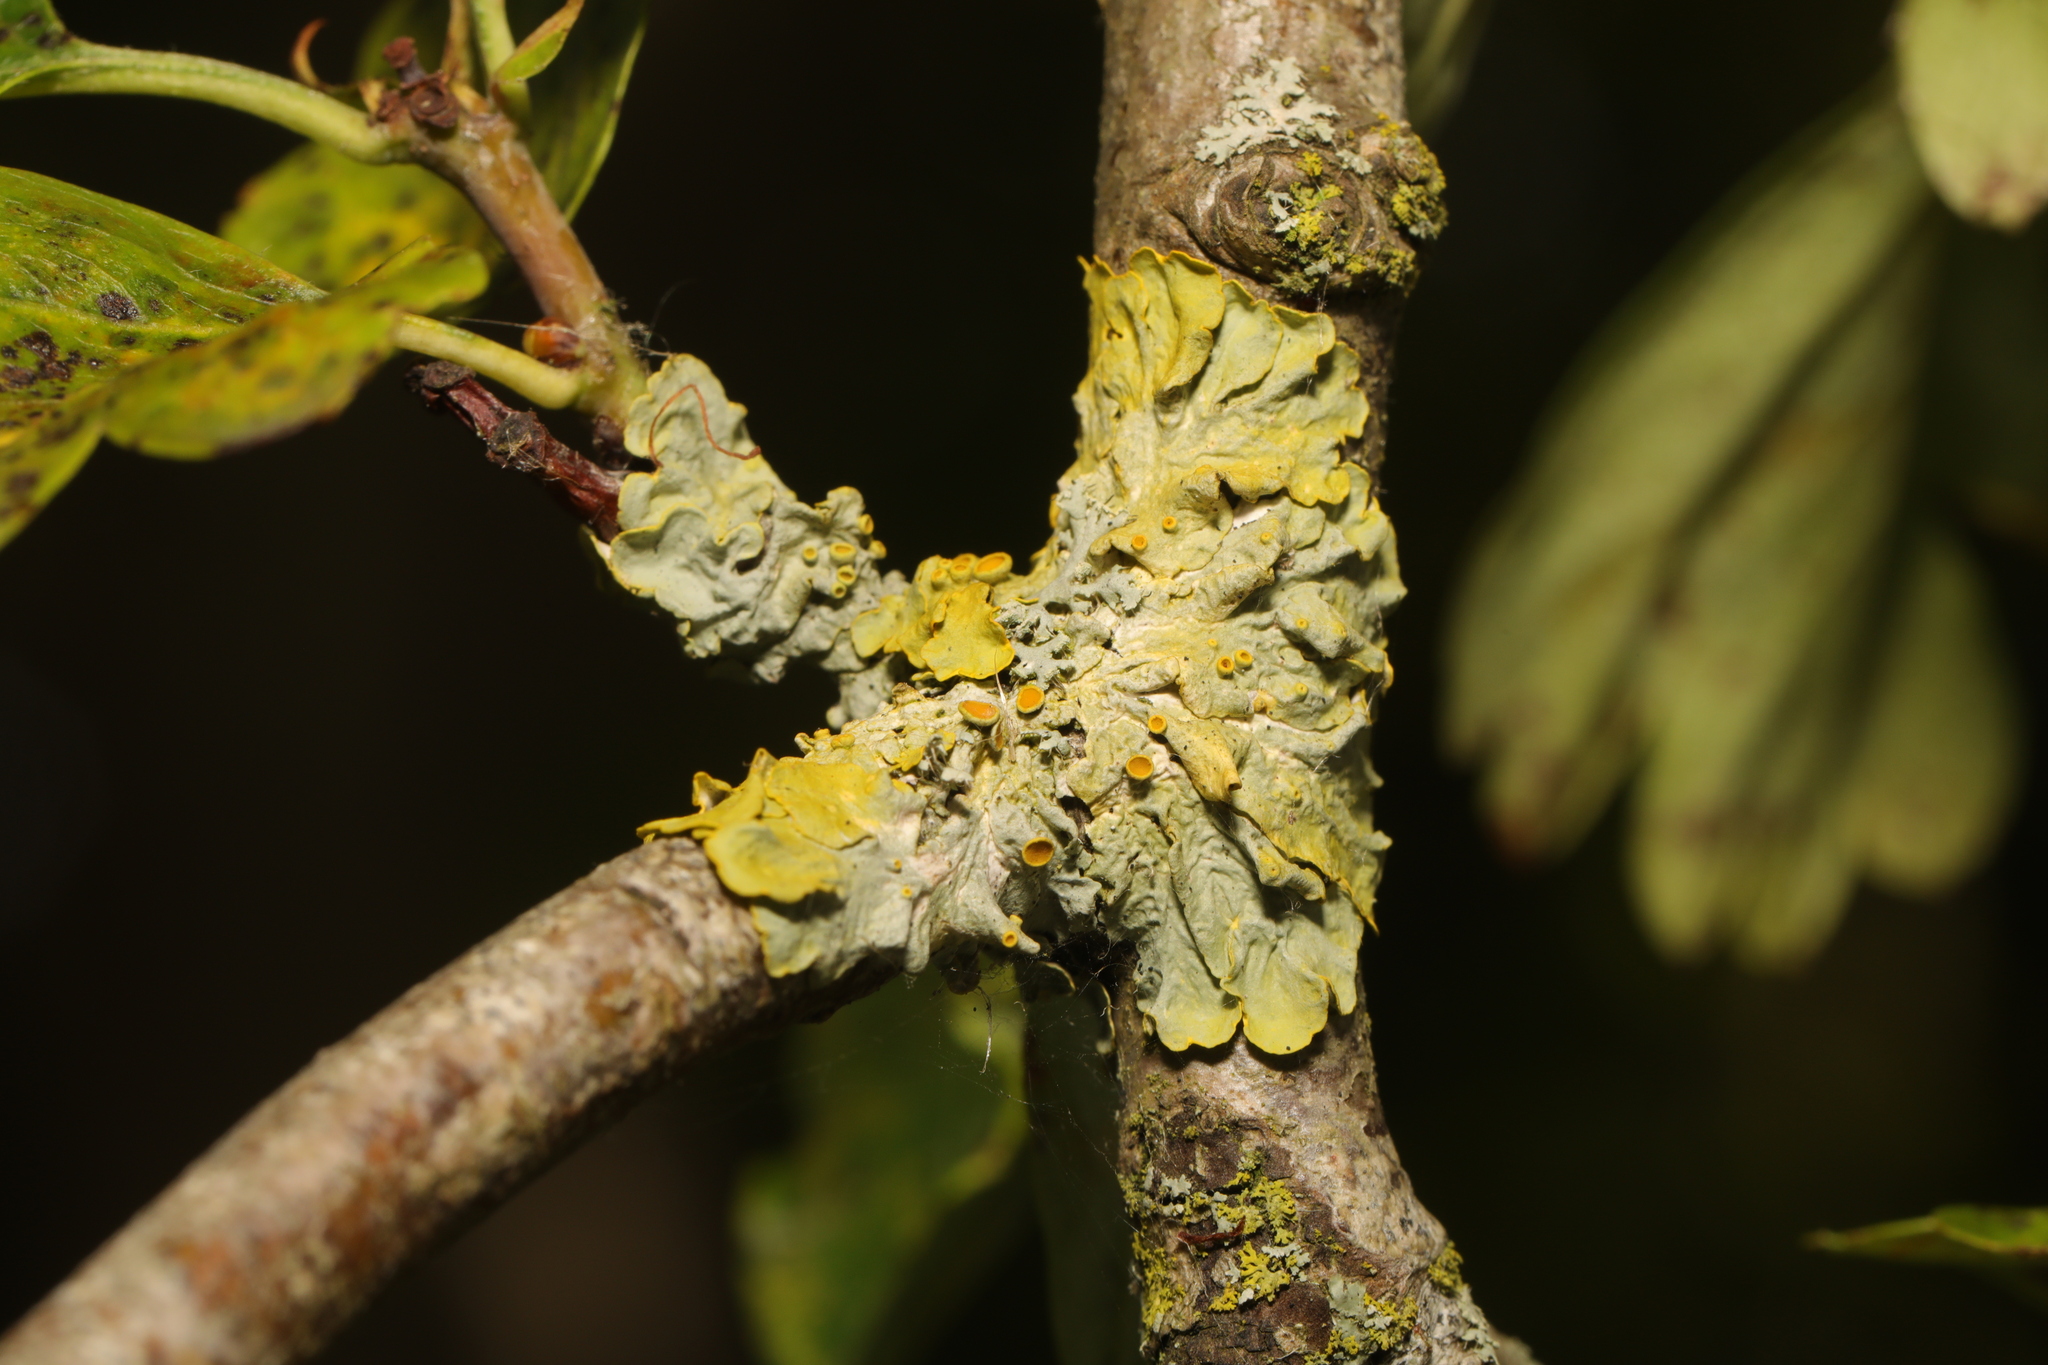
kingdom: Fungi
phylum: Ascomycota
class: Lecanoromycetes
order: Teloschistales
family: Teloschistaceae
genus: Xanthoria
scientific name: Xanthoria parietina
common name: Common orange lichen
